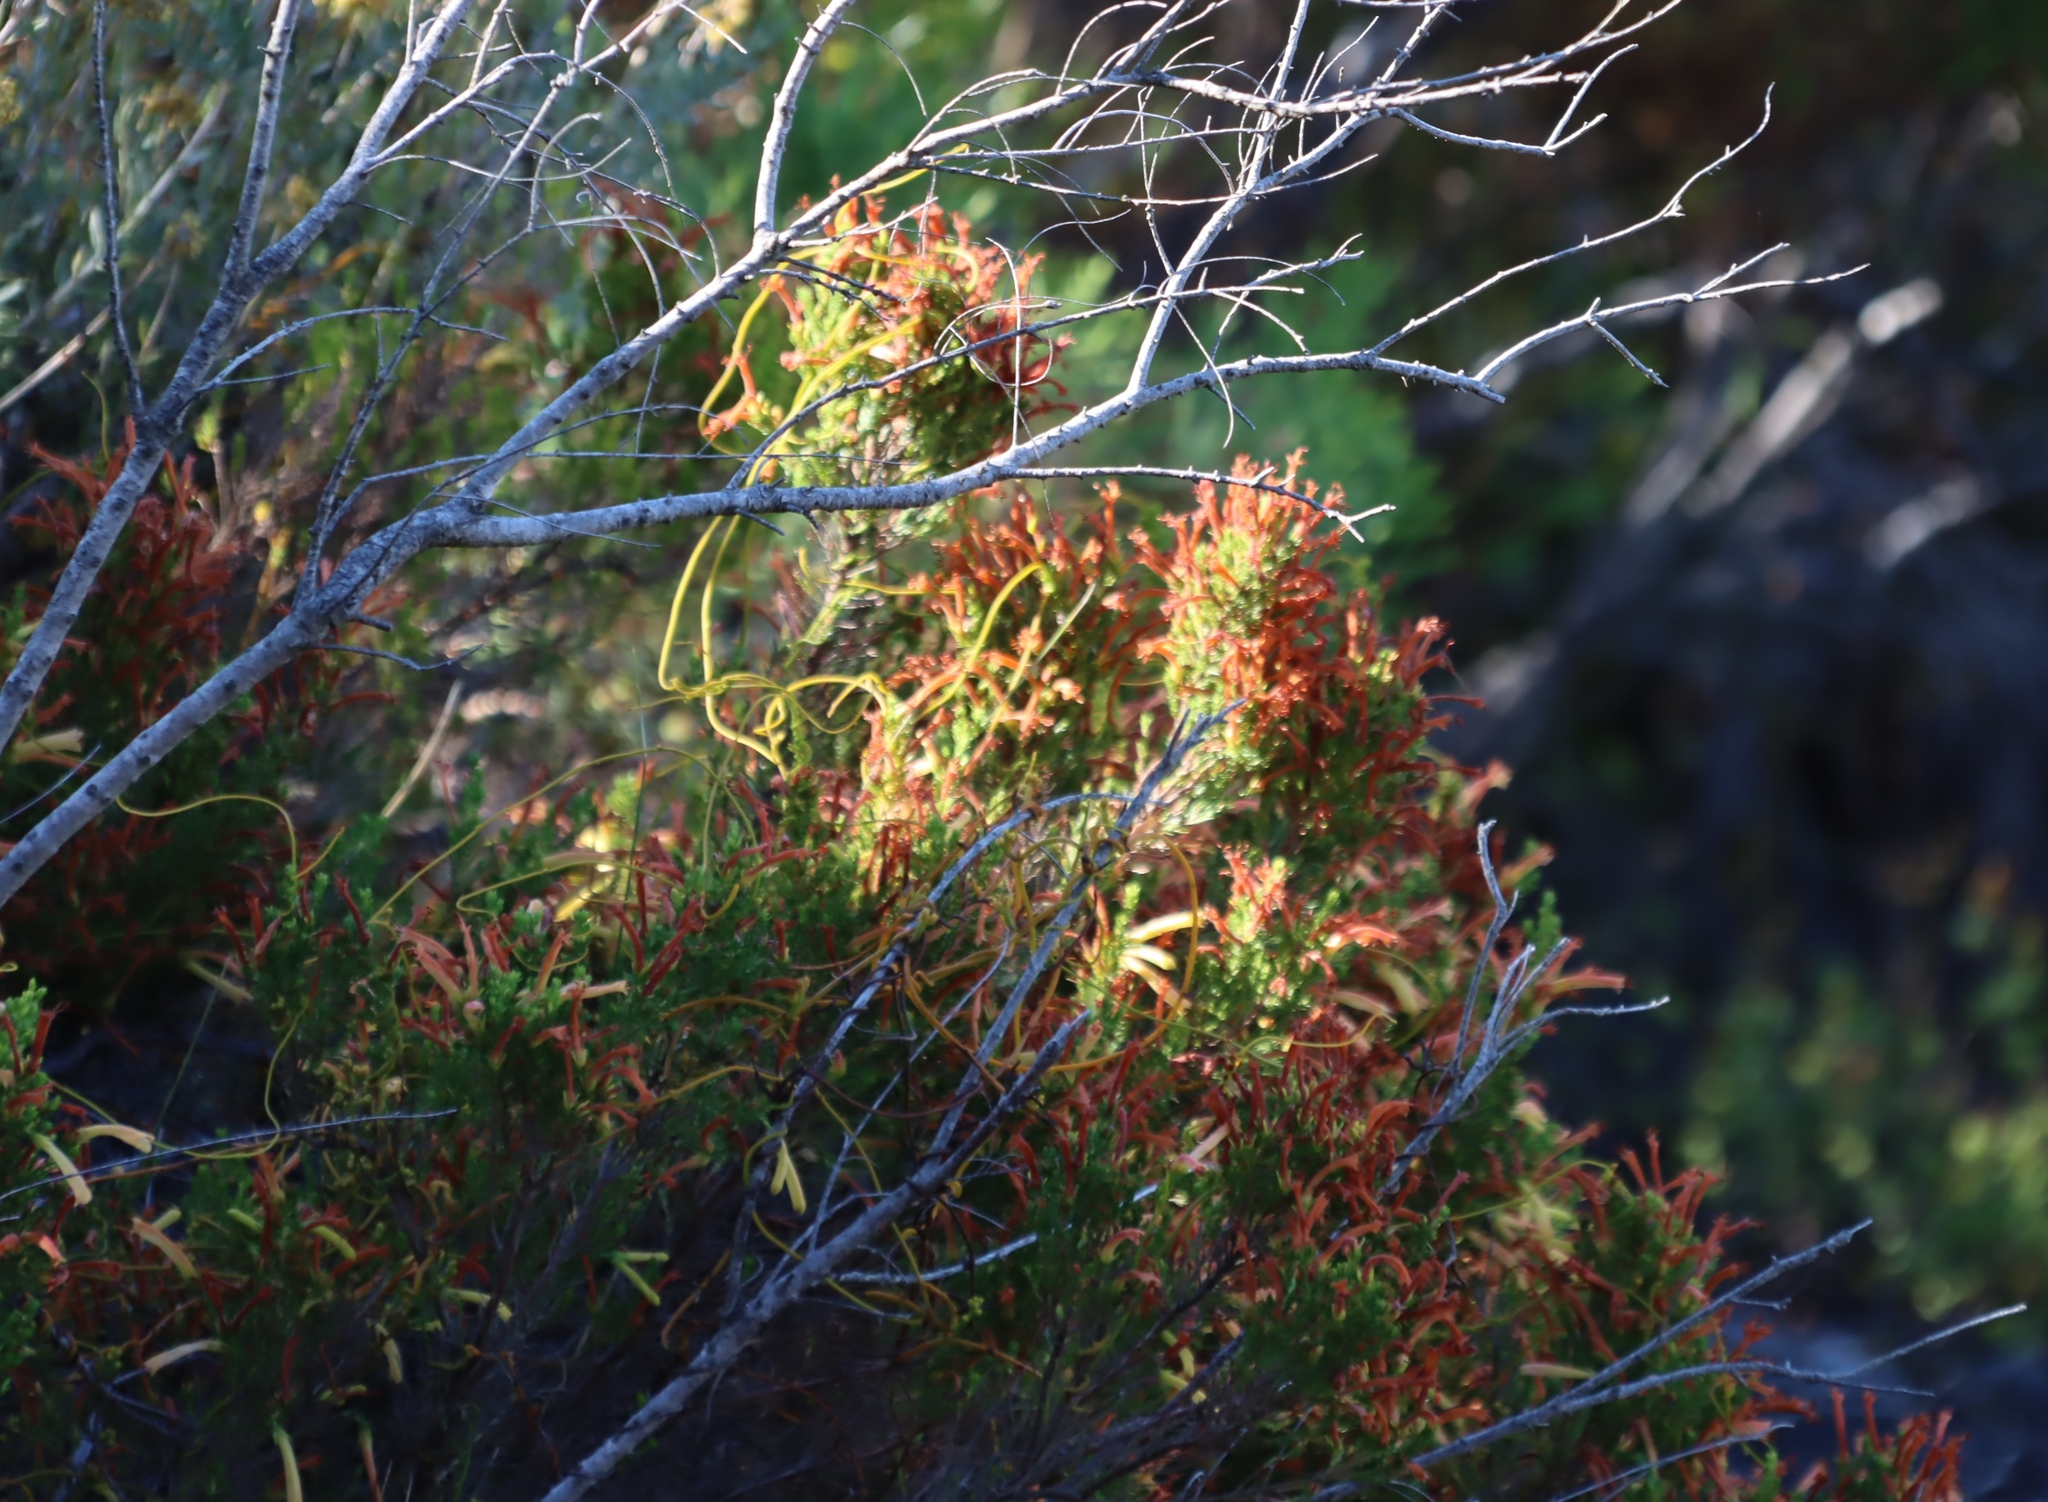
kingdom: Plantae
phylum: Tracheophyta
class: Magnoliopsida
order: Ericales
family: Ericaceae
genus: Erica
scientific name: Erica curviflora
